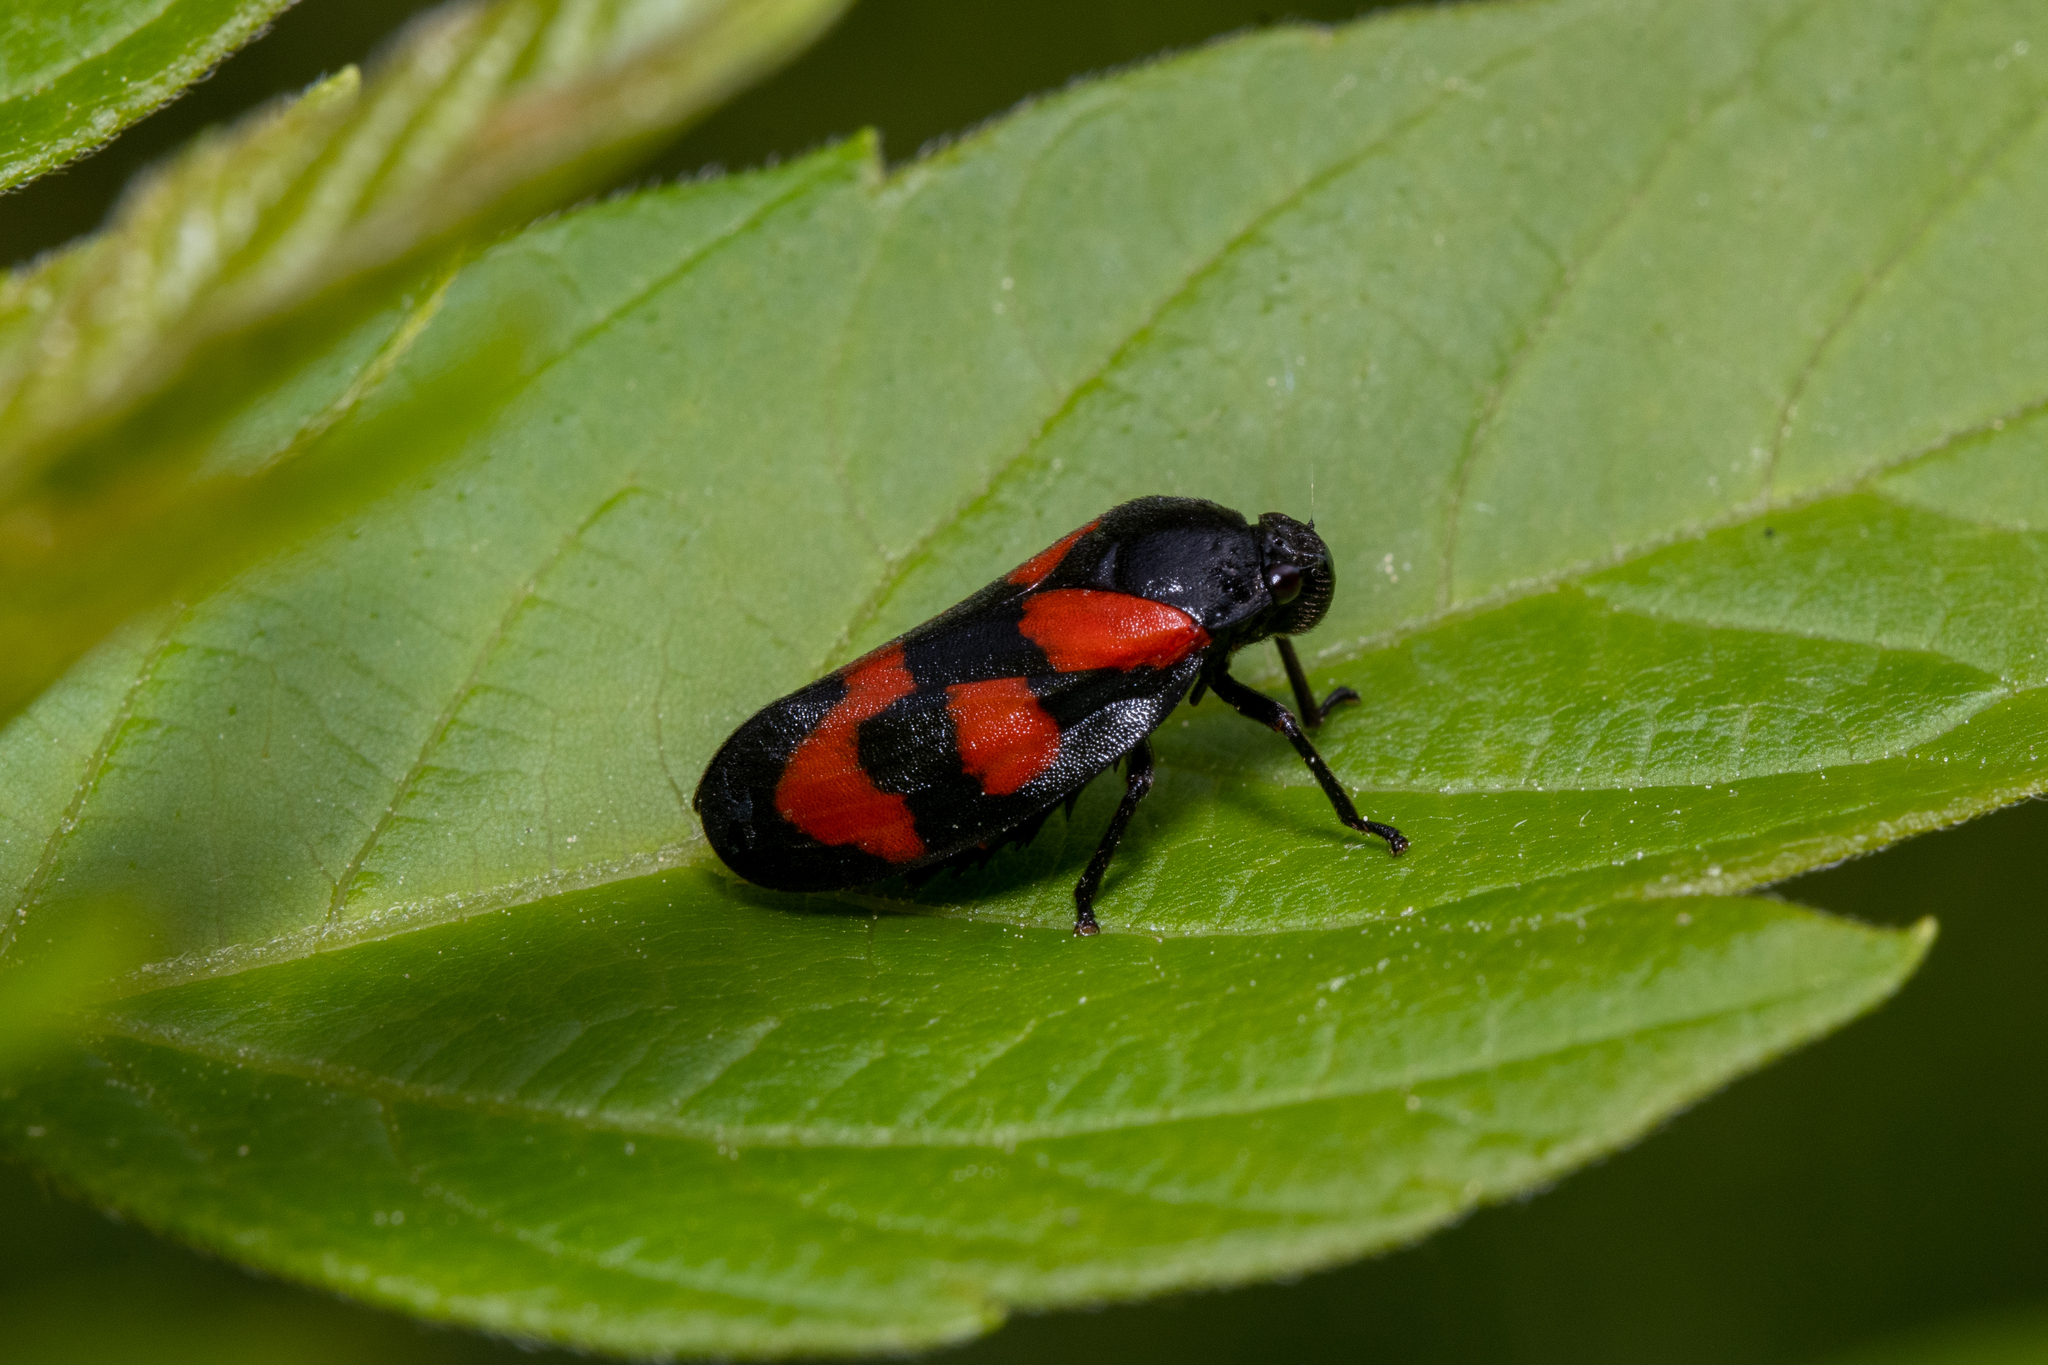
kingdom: Animalia
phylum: Arthropoda
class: Insecta
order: Hemiptera
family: Cercopidae
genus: Cercopis
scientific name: Cercopis vulnerata
